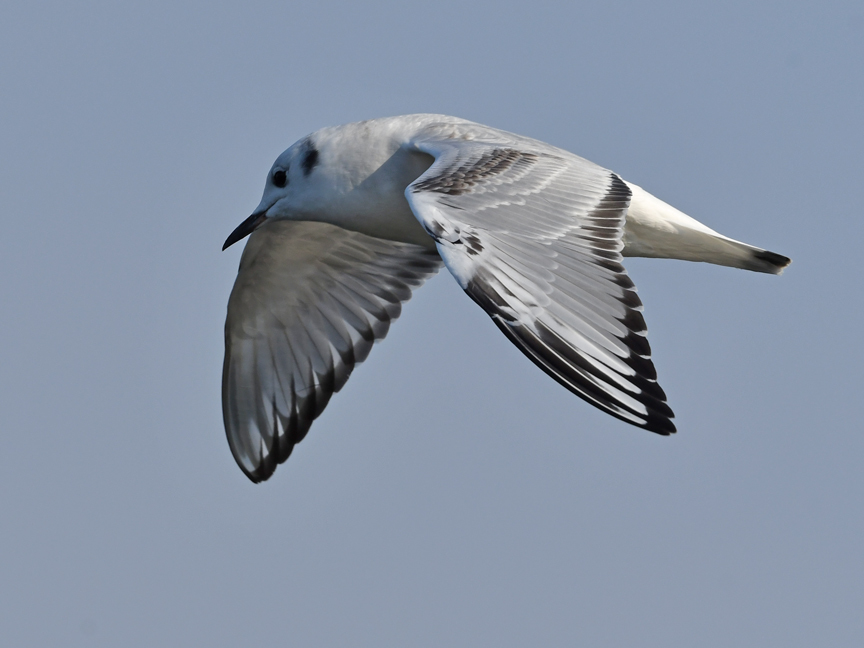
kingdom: Animalia
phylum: Chordata
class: Aves
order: Charadriiformes
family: Laridae
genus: Chroicocephalus
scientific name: Chroicocephalus philadelphia
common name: Bonaparte's gull
